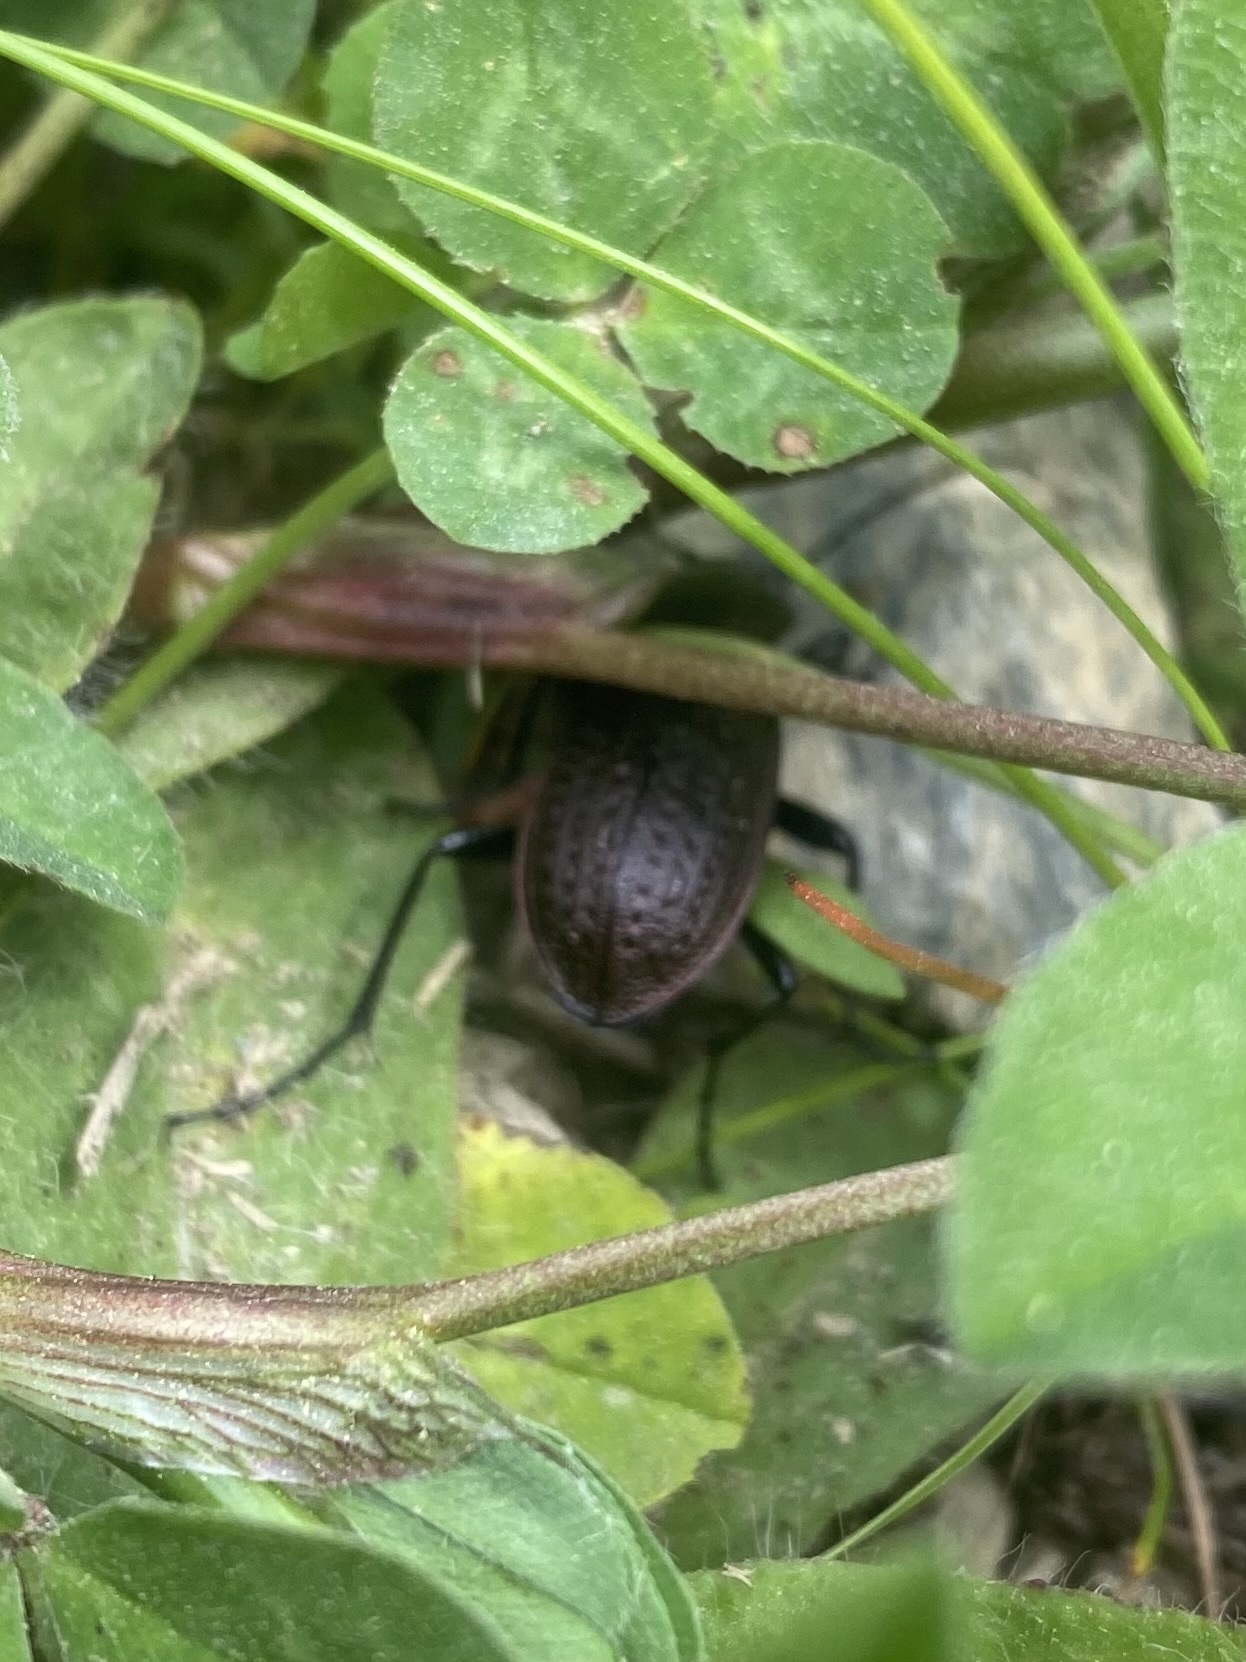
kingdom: Animalia
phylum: Arthropoda
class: Insecta
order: Coleoptera
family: Carabidae
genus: Carabus
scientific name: Carabus granulatus
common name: Granulate ground beetle
